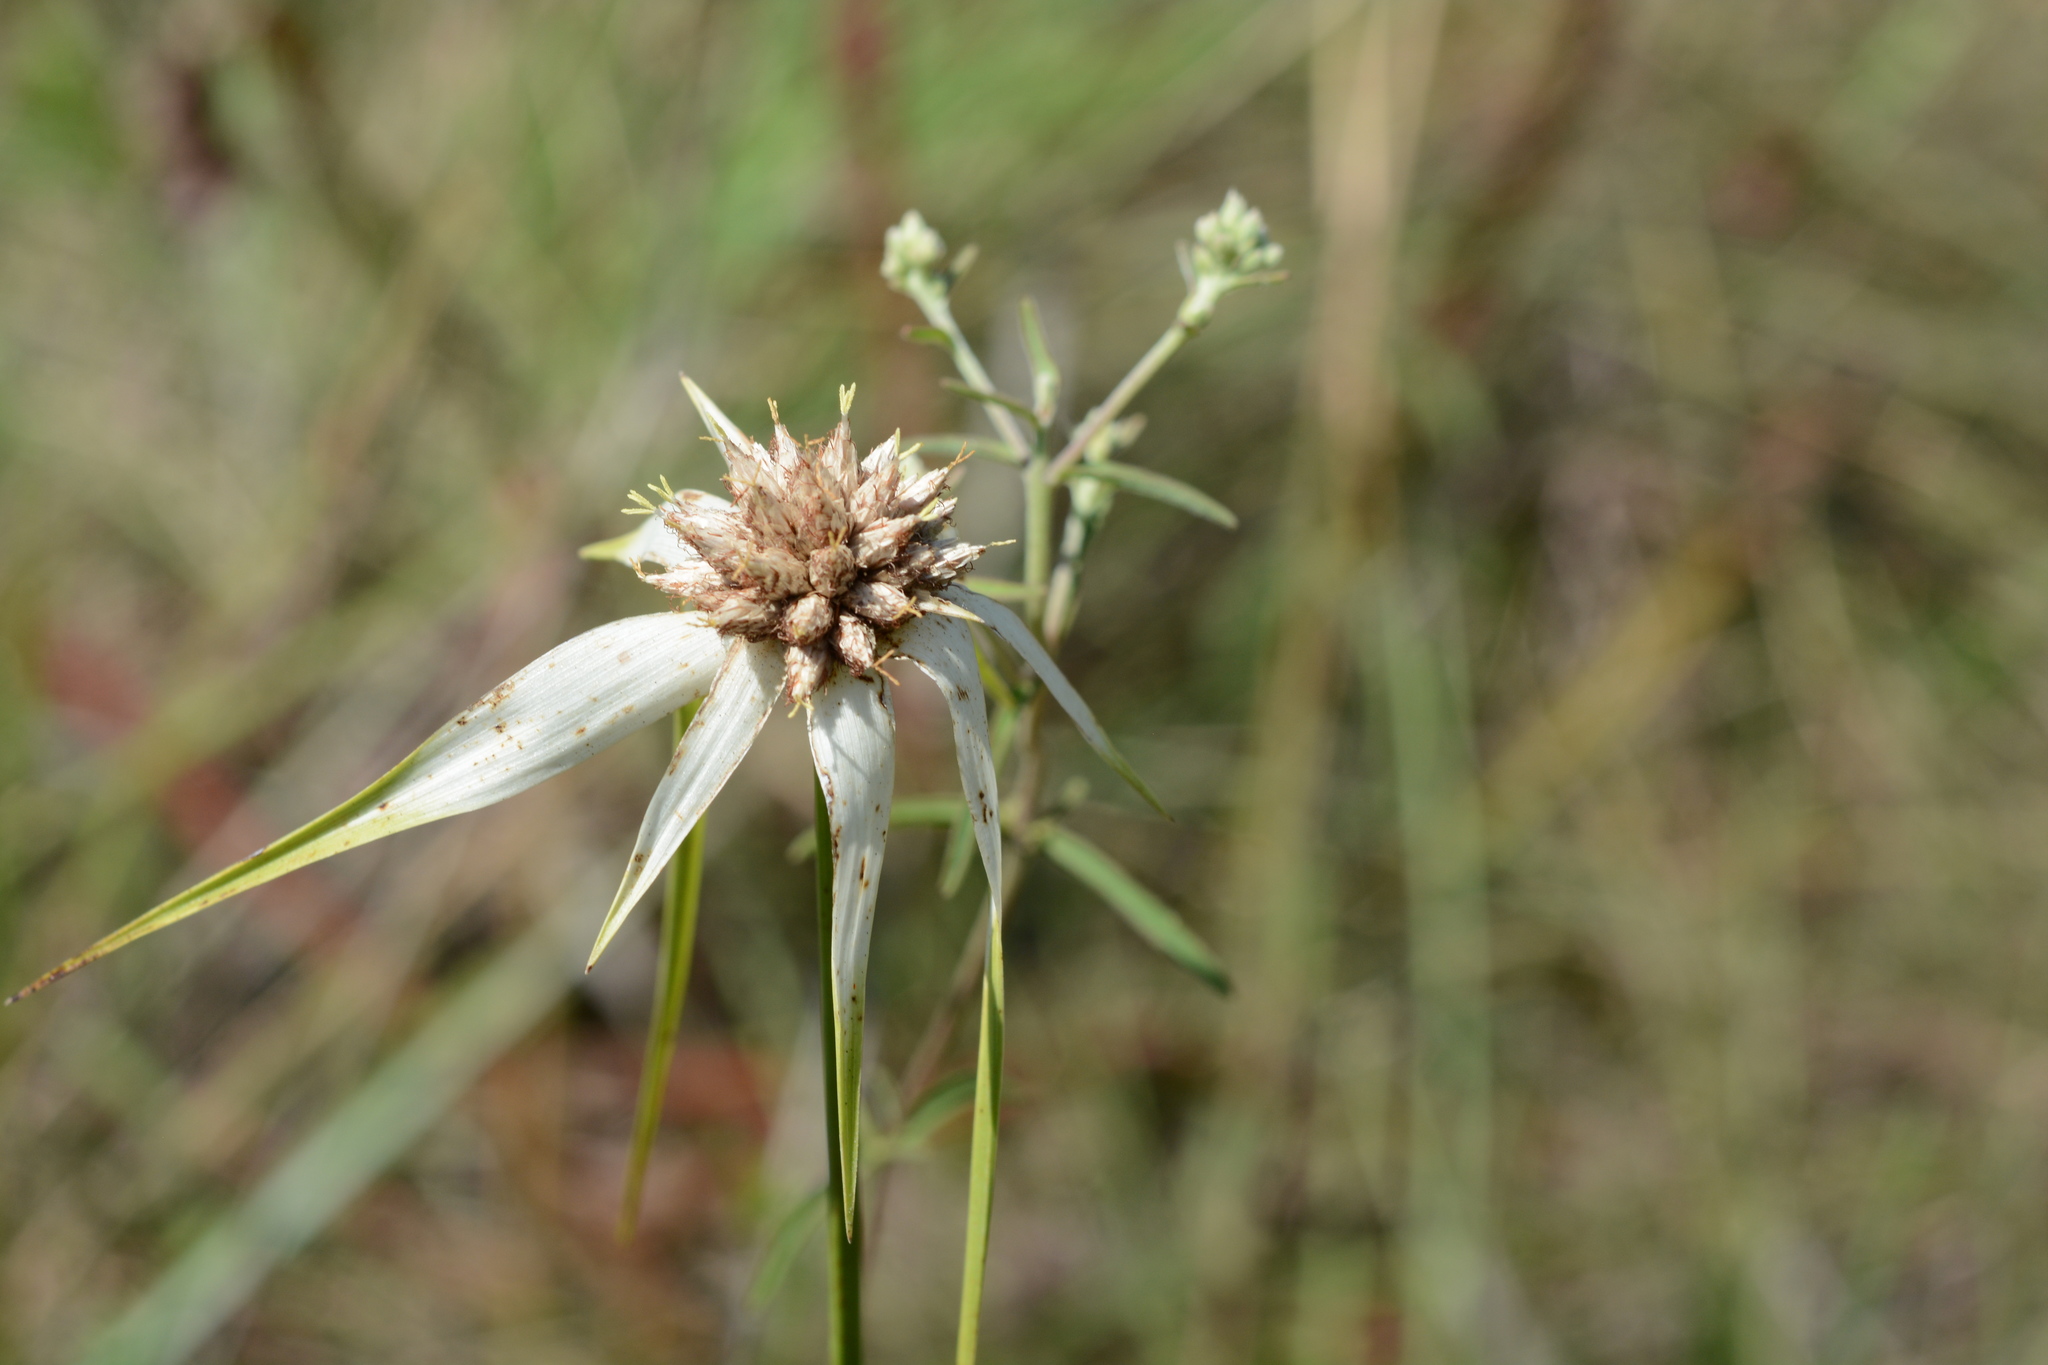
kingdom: Plantae
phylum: Tracheophyta
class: Liliopsida
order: Poales
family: Cyperaceae
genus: Rhynchospora
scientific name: Rhynchospora colorata
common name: Star sedge
